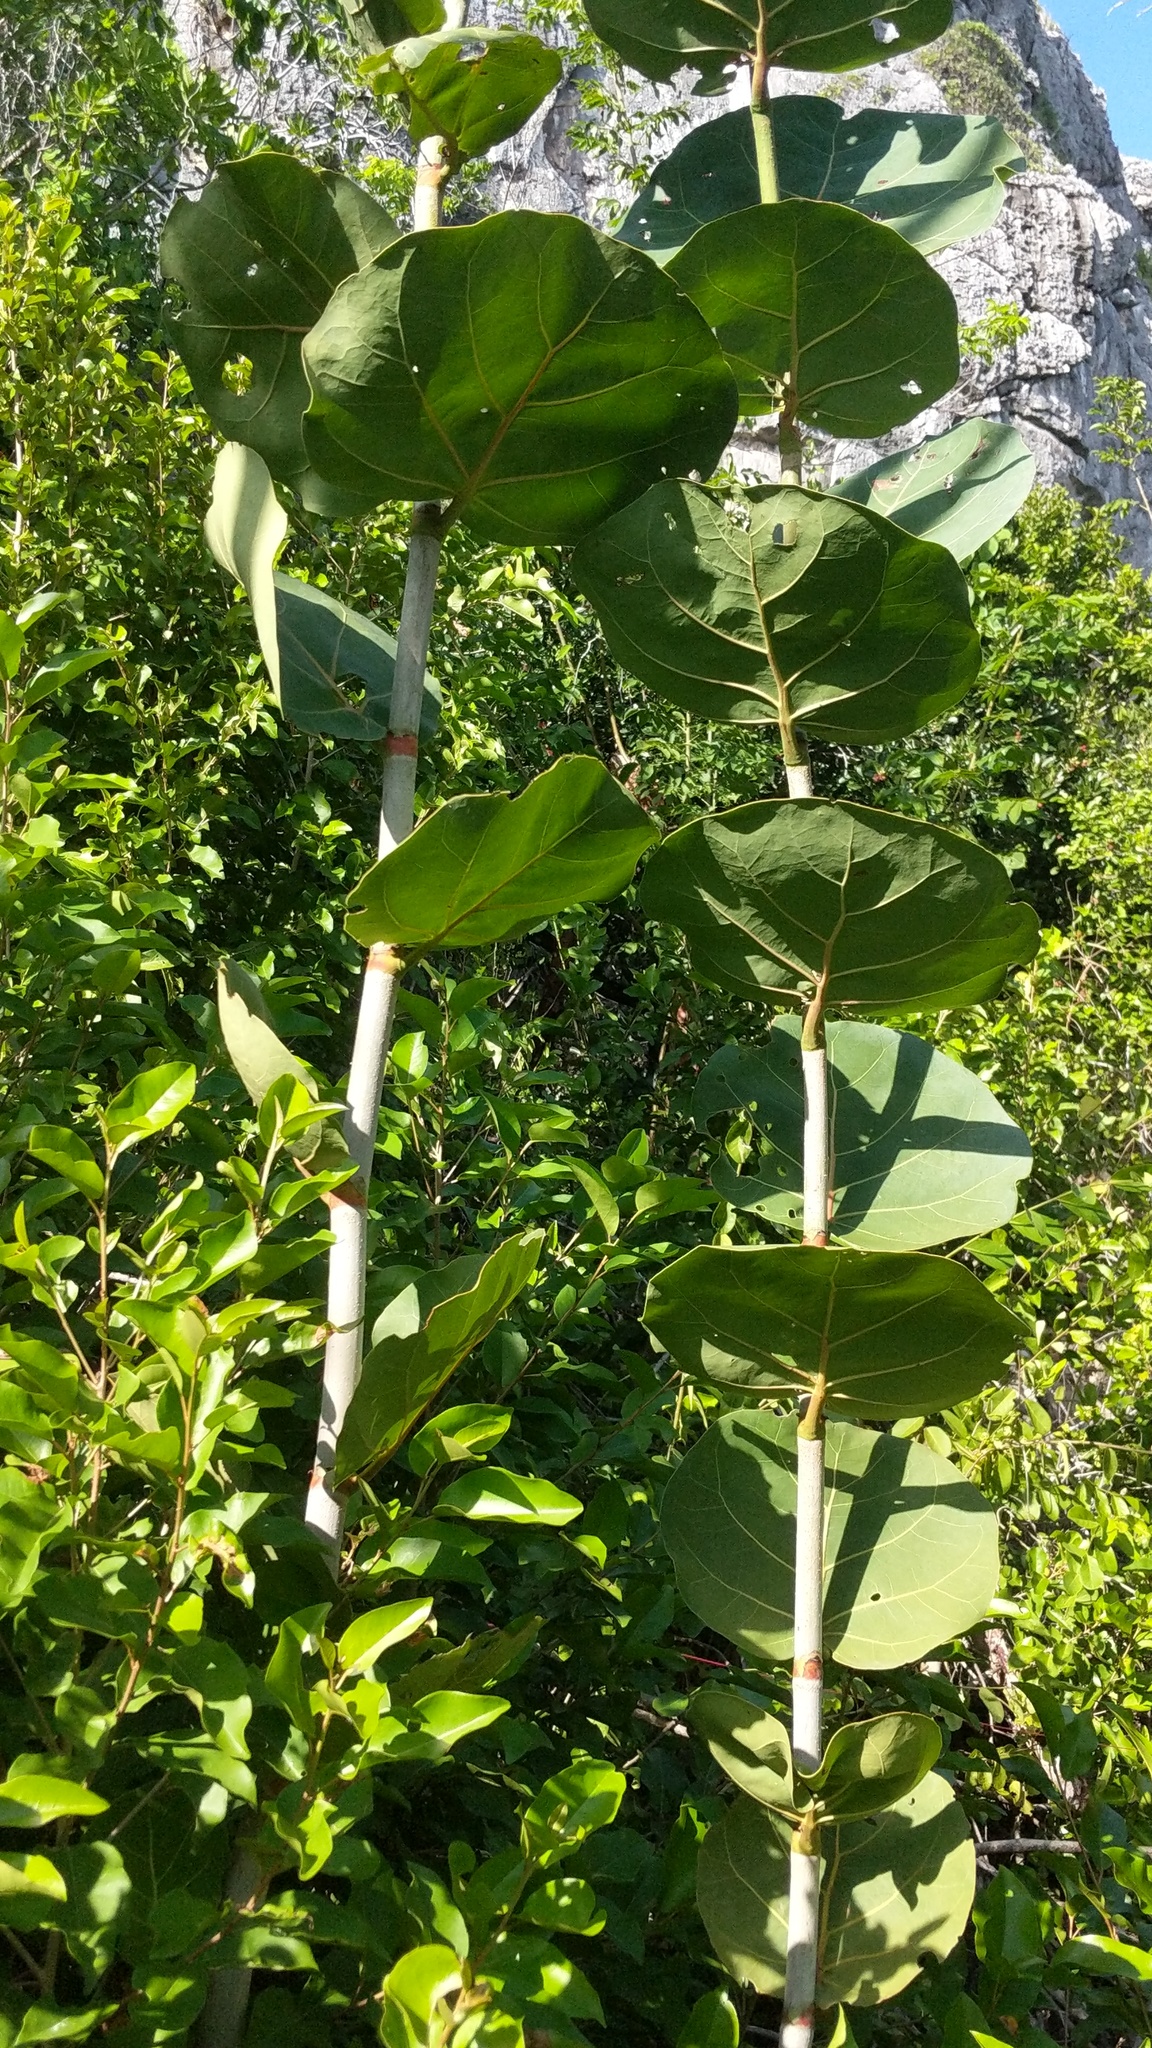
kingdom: Plantae
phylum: Tracheophyta
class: Magnoliopsida
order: Caryophyllales
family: Polygonaceae
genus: Coccoloba
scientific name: Coccoloba uvifera
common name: Seagrape
